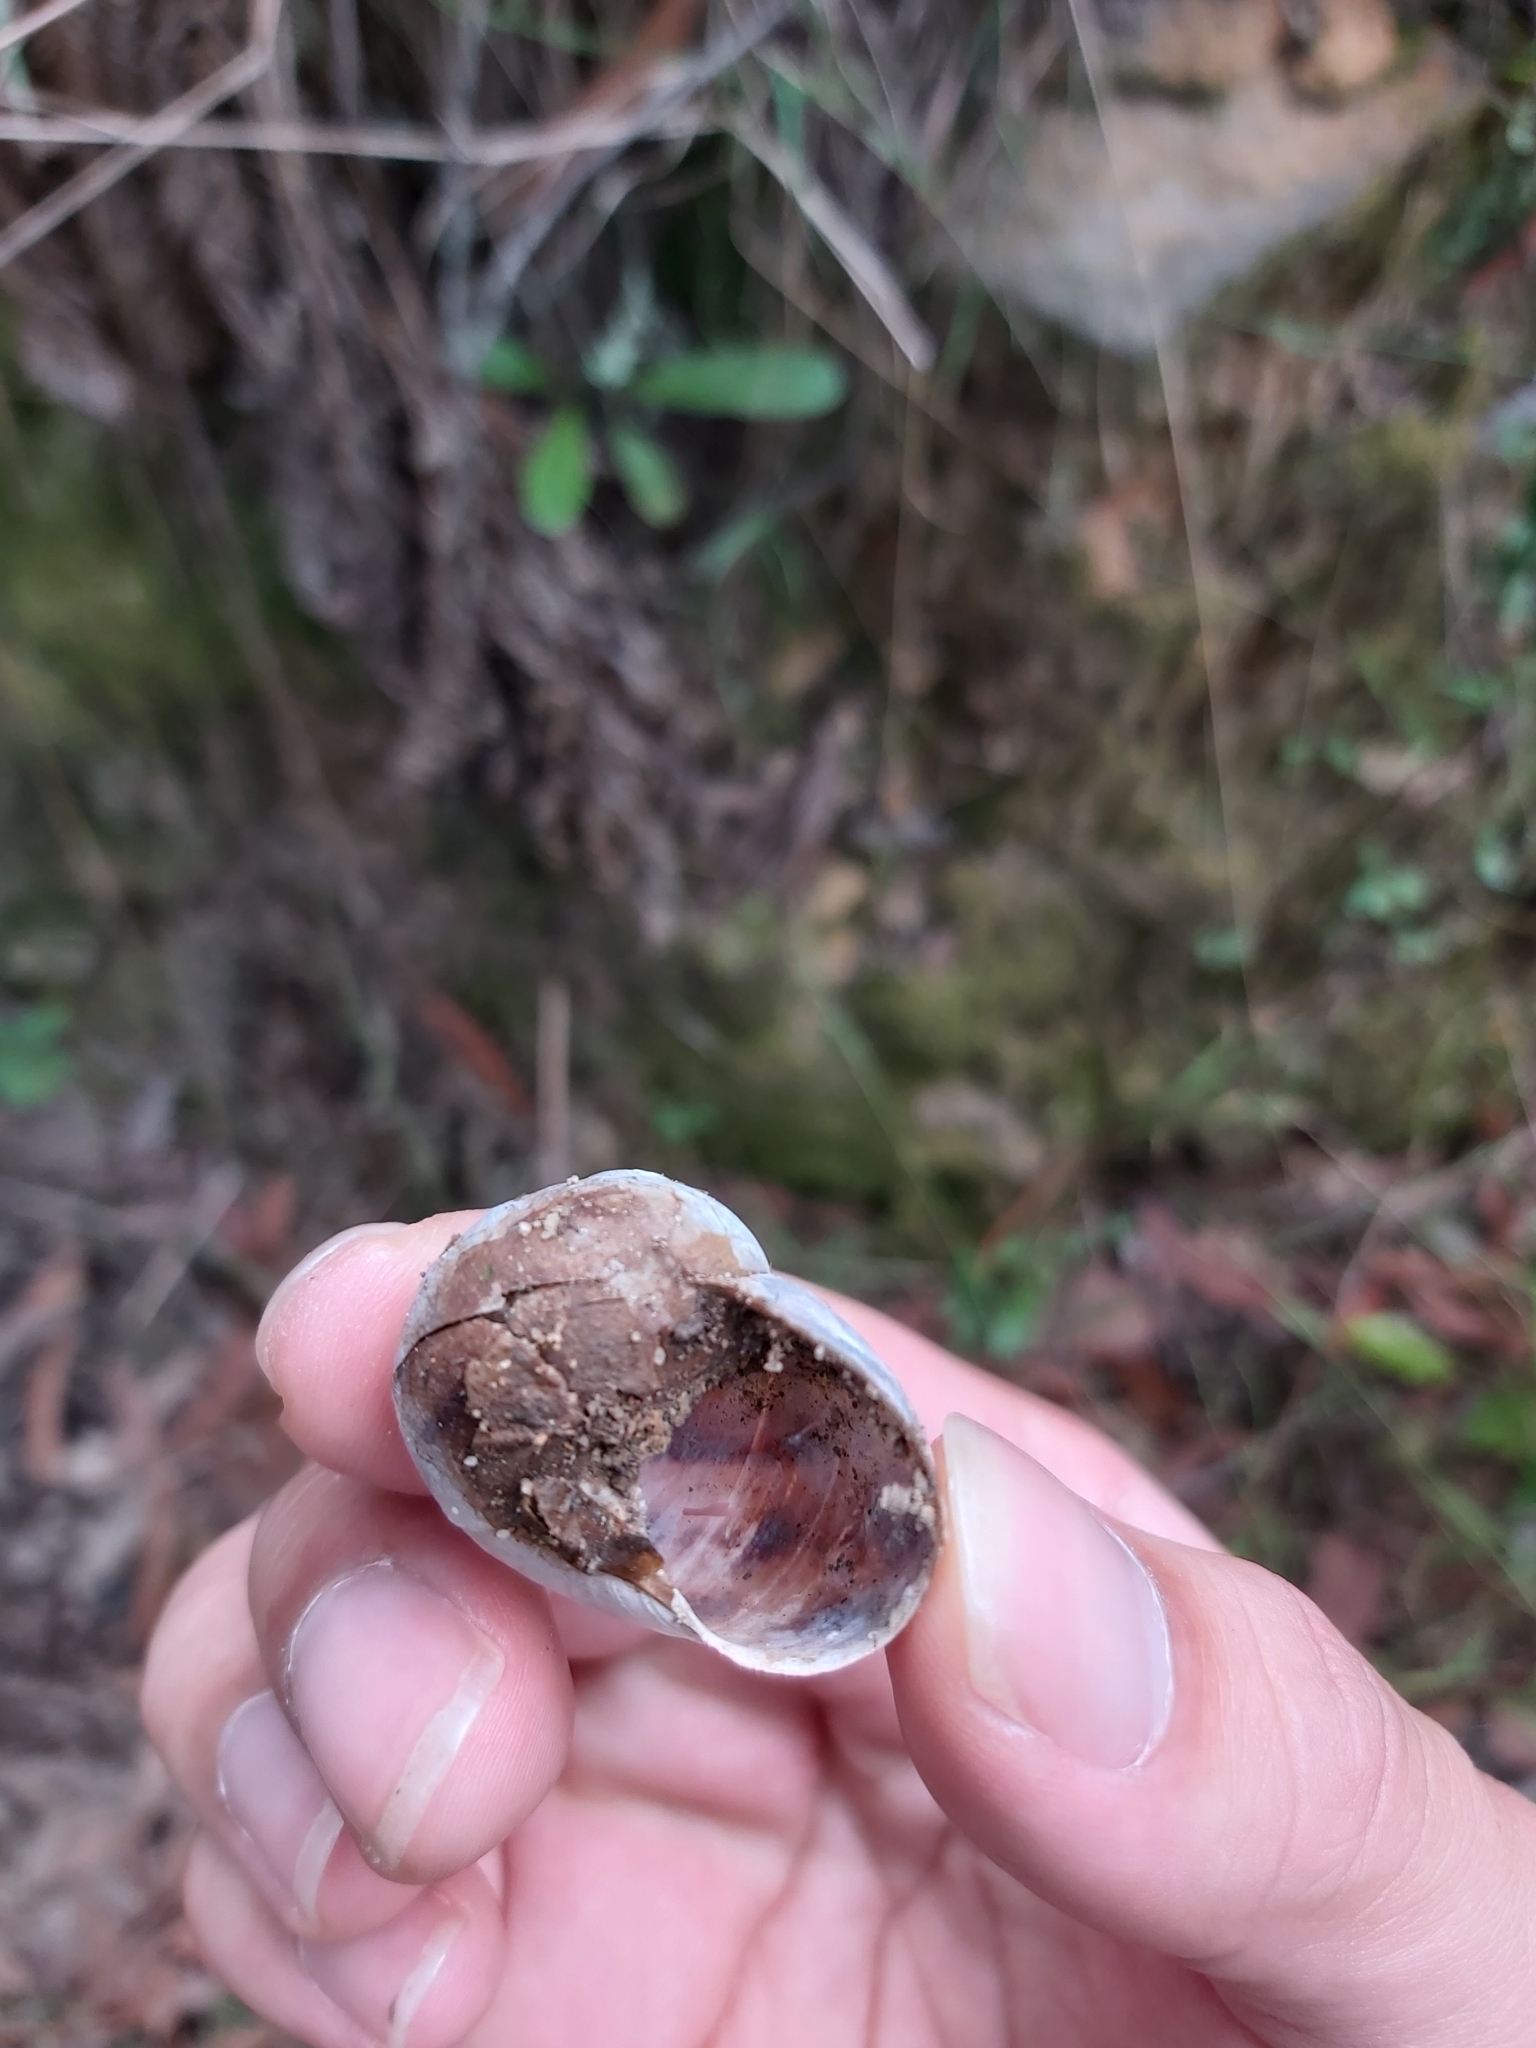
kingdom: Animalia
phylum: Mollusca
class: Gastropoda
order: Stylommatophora
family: Helicidae
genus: Cornu
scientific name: Cornu aspersum
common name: Brown garden snail
